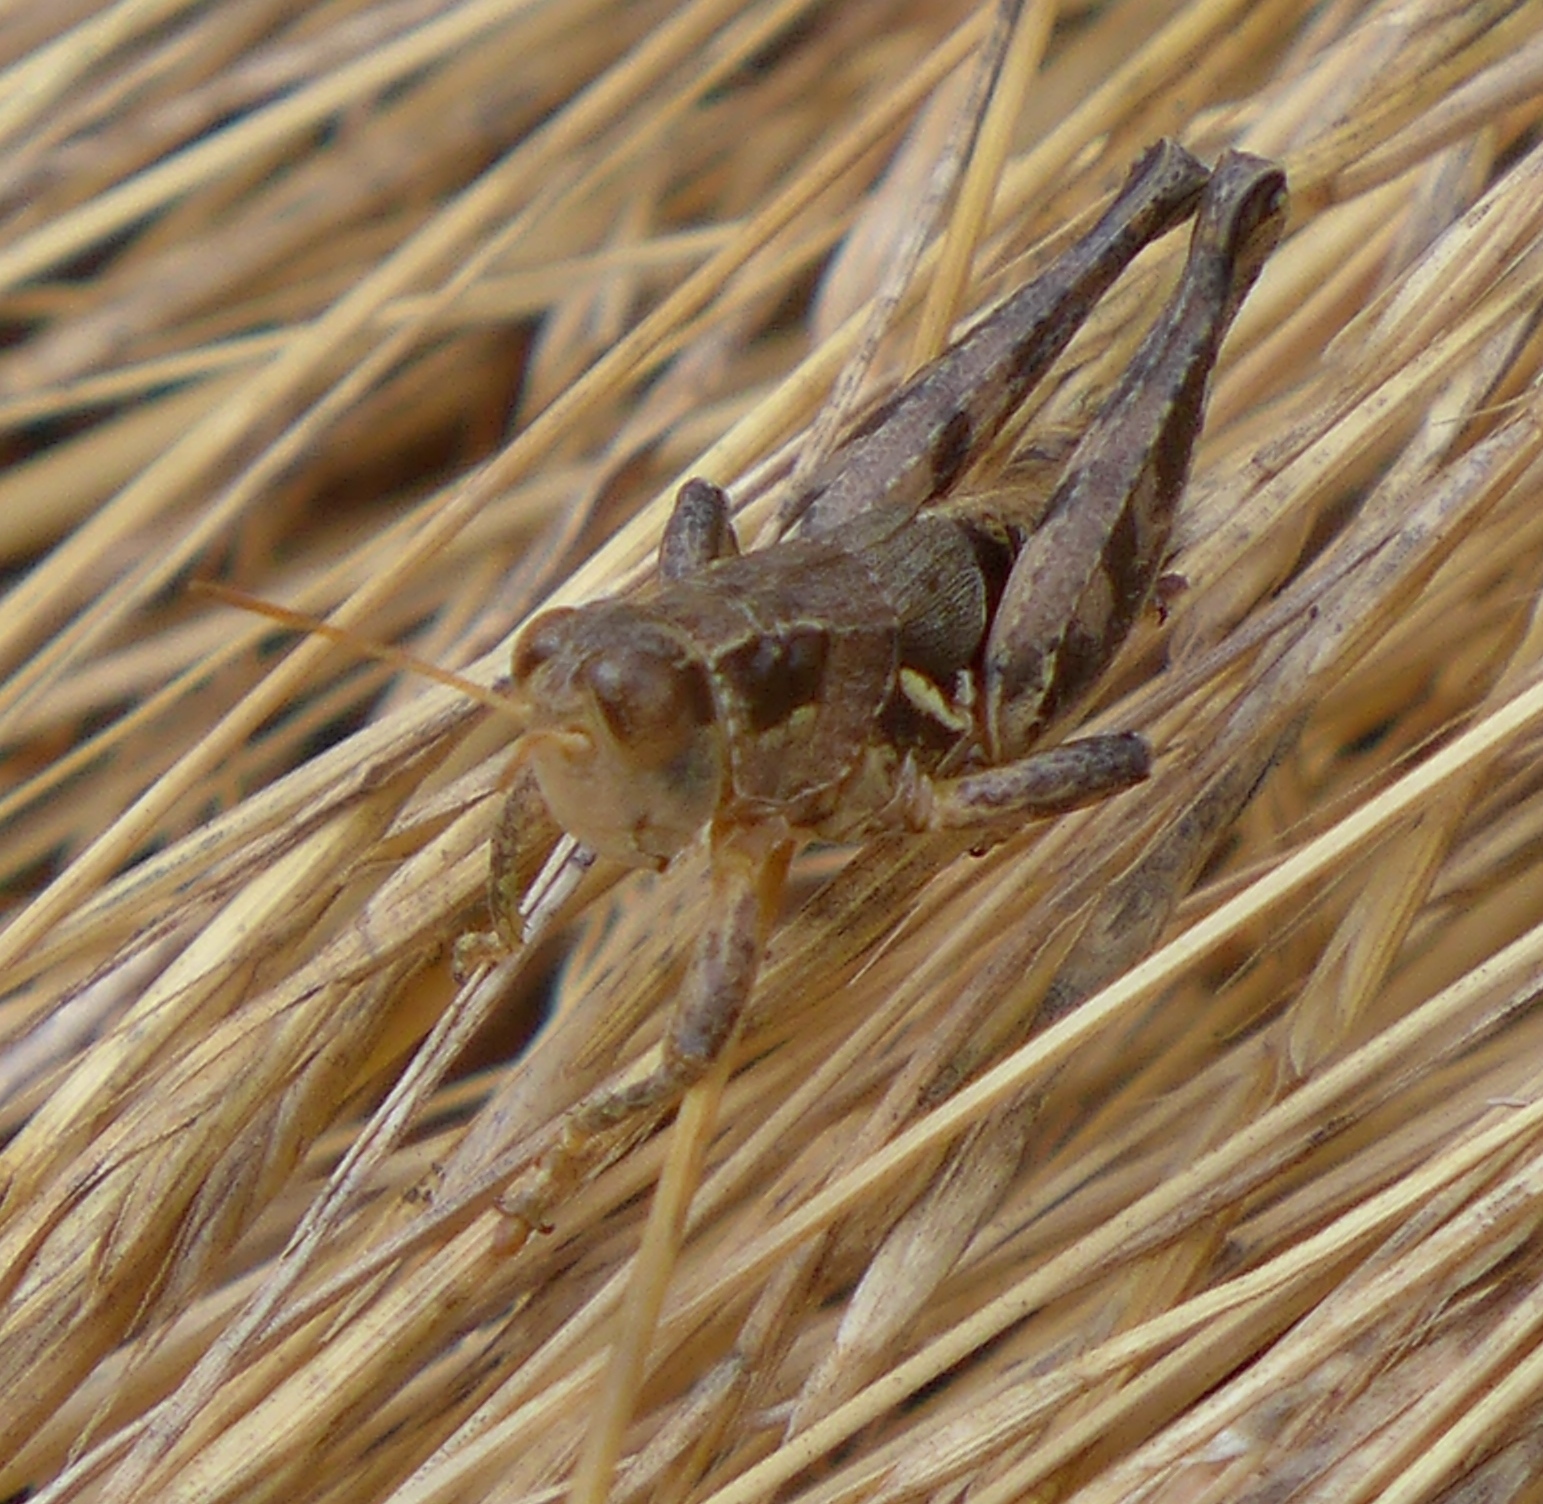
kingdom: Animalia
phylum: Arthropoda
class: Insecta
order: Orthoptera
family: Acrididae
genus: Oedaleonotus
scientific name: Oedaleonotus borckii
